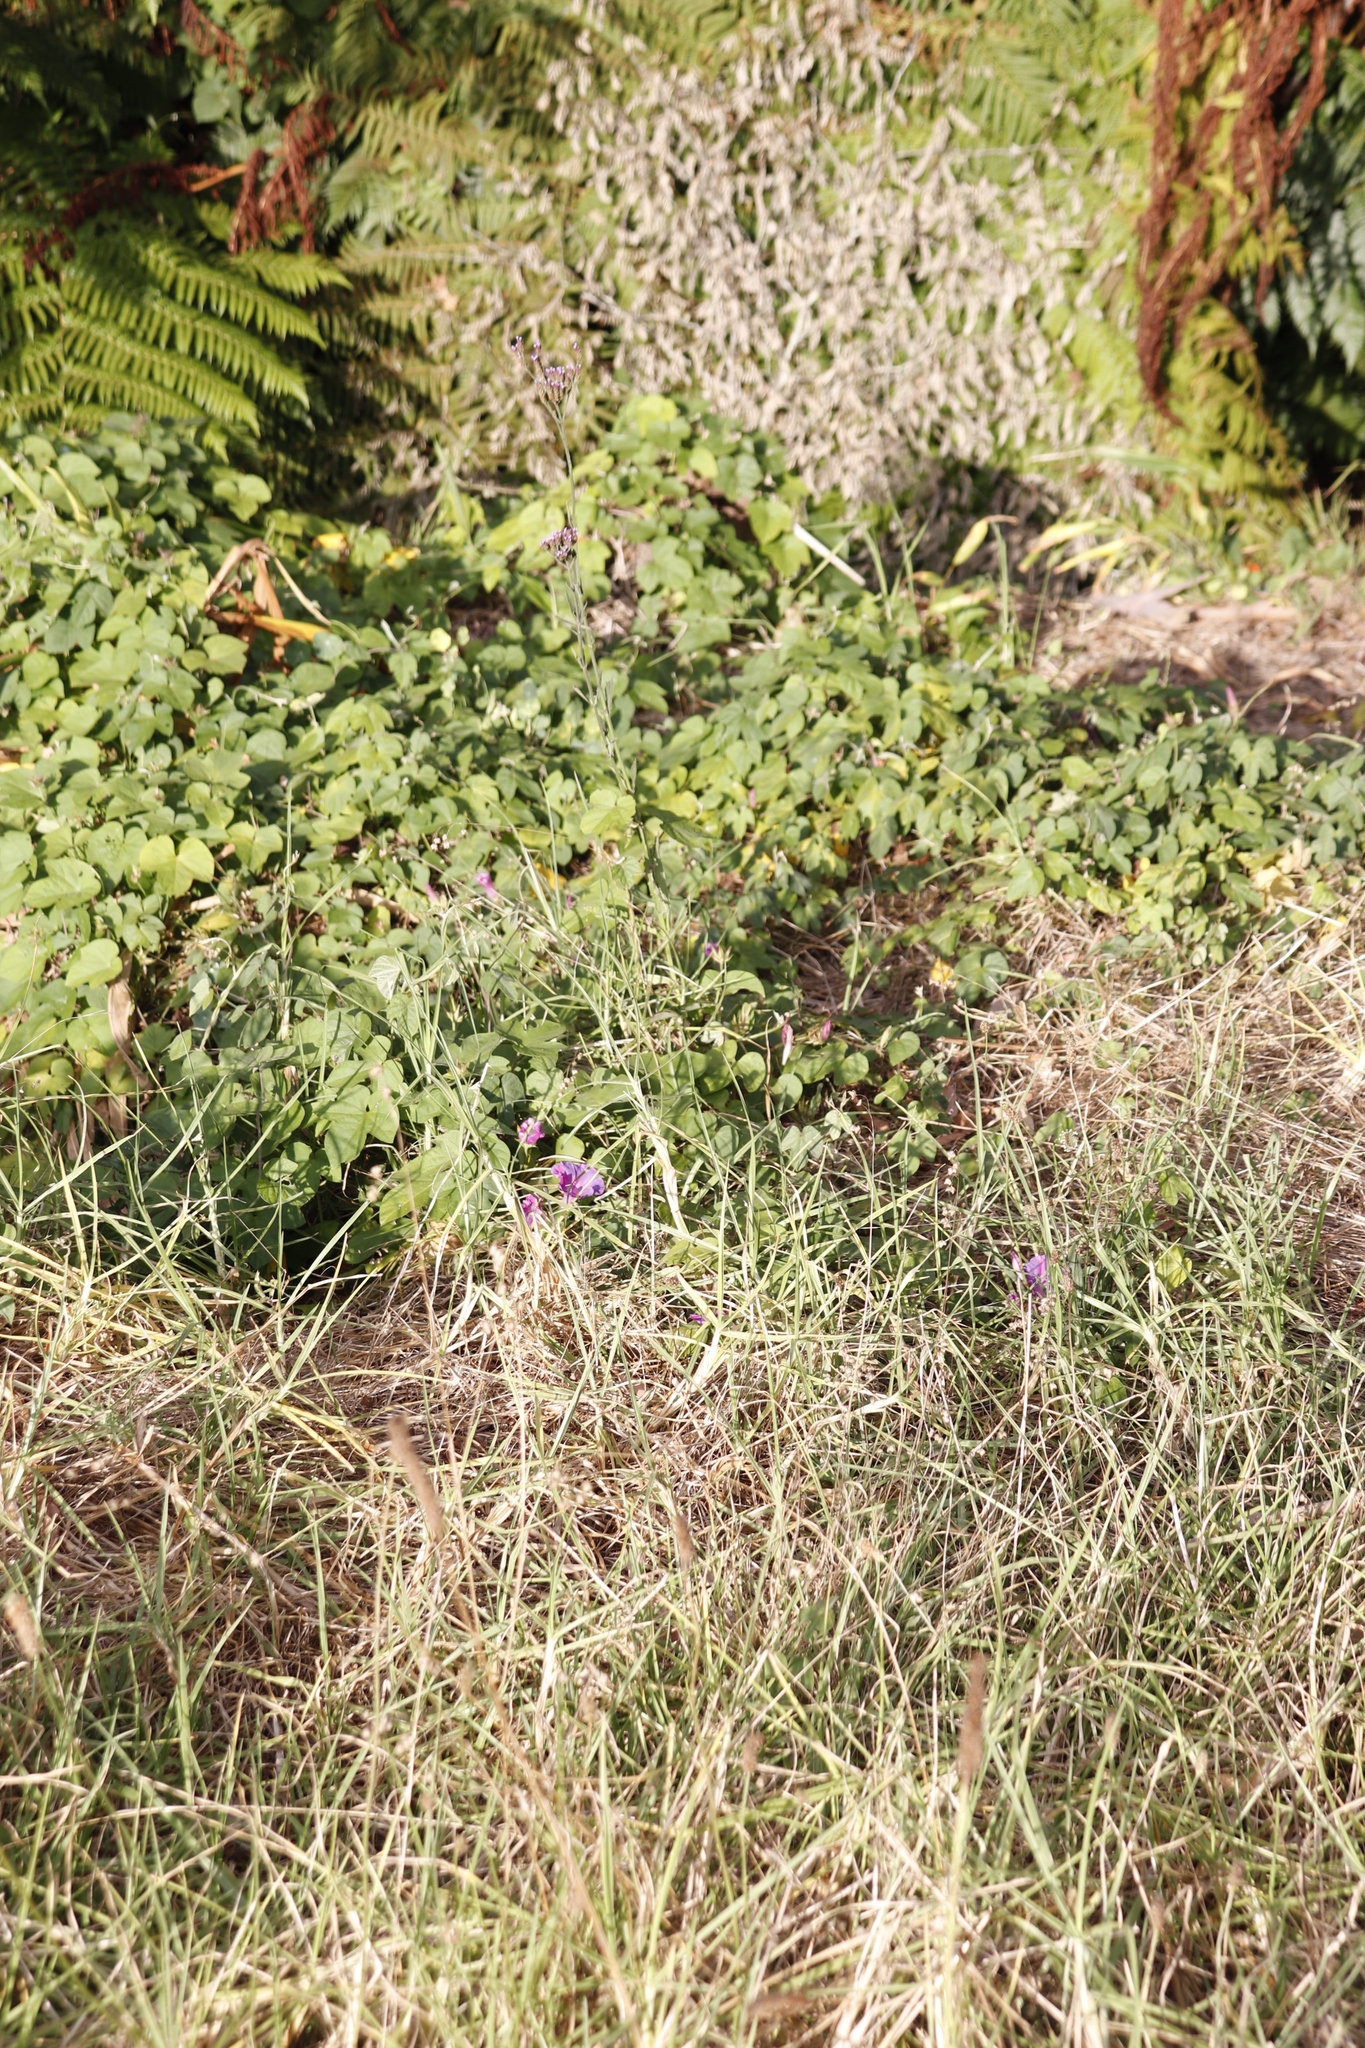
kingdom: Plantae
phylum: Tracheophyta
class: Magnoliopsida
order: Lamiales
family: Verbenaceae
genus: Verbena
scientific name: Verbena bonariensis
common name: Purpletop vervain
